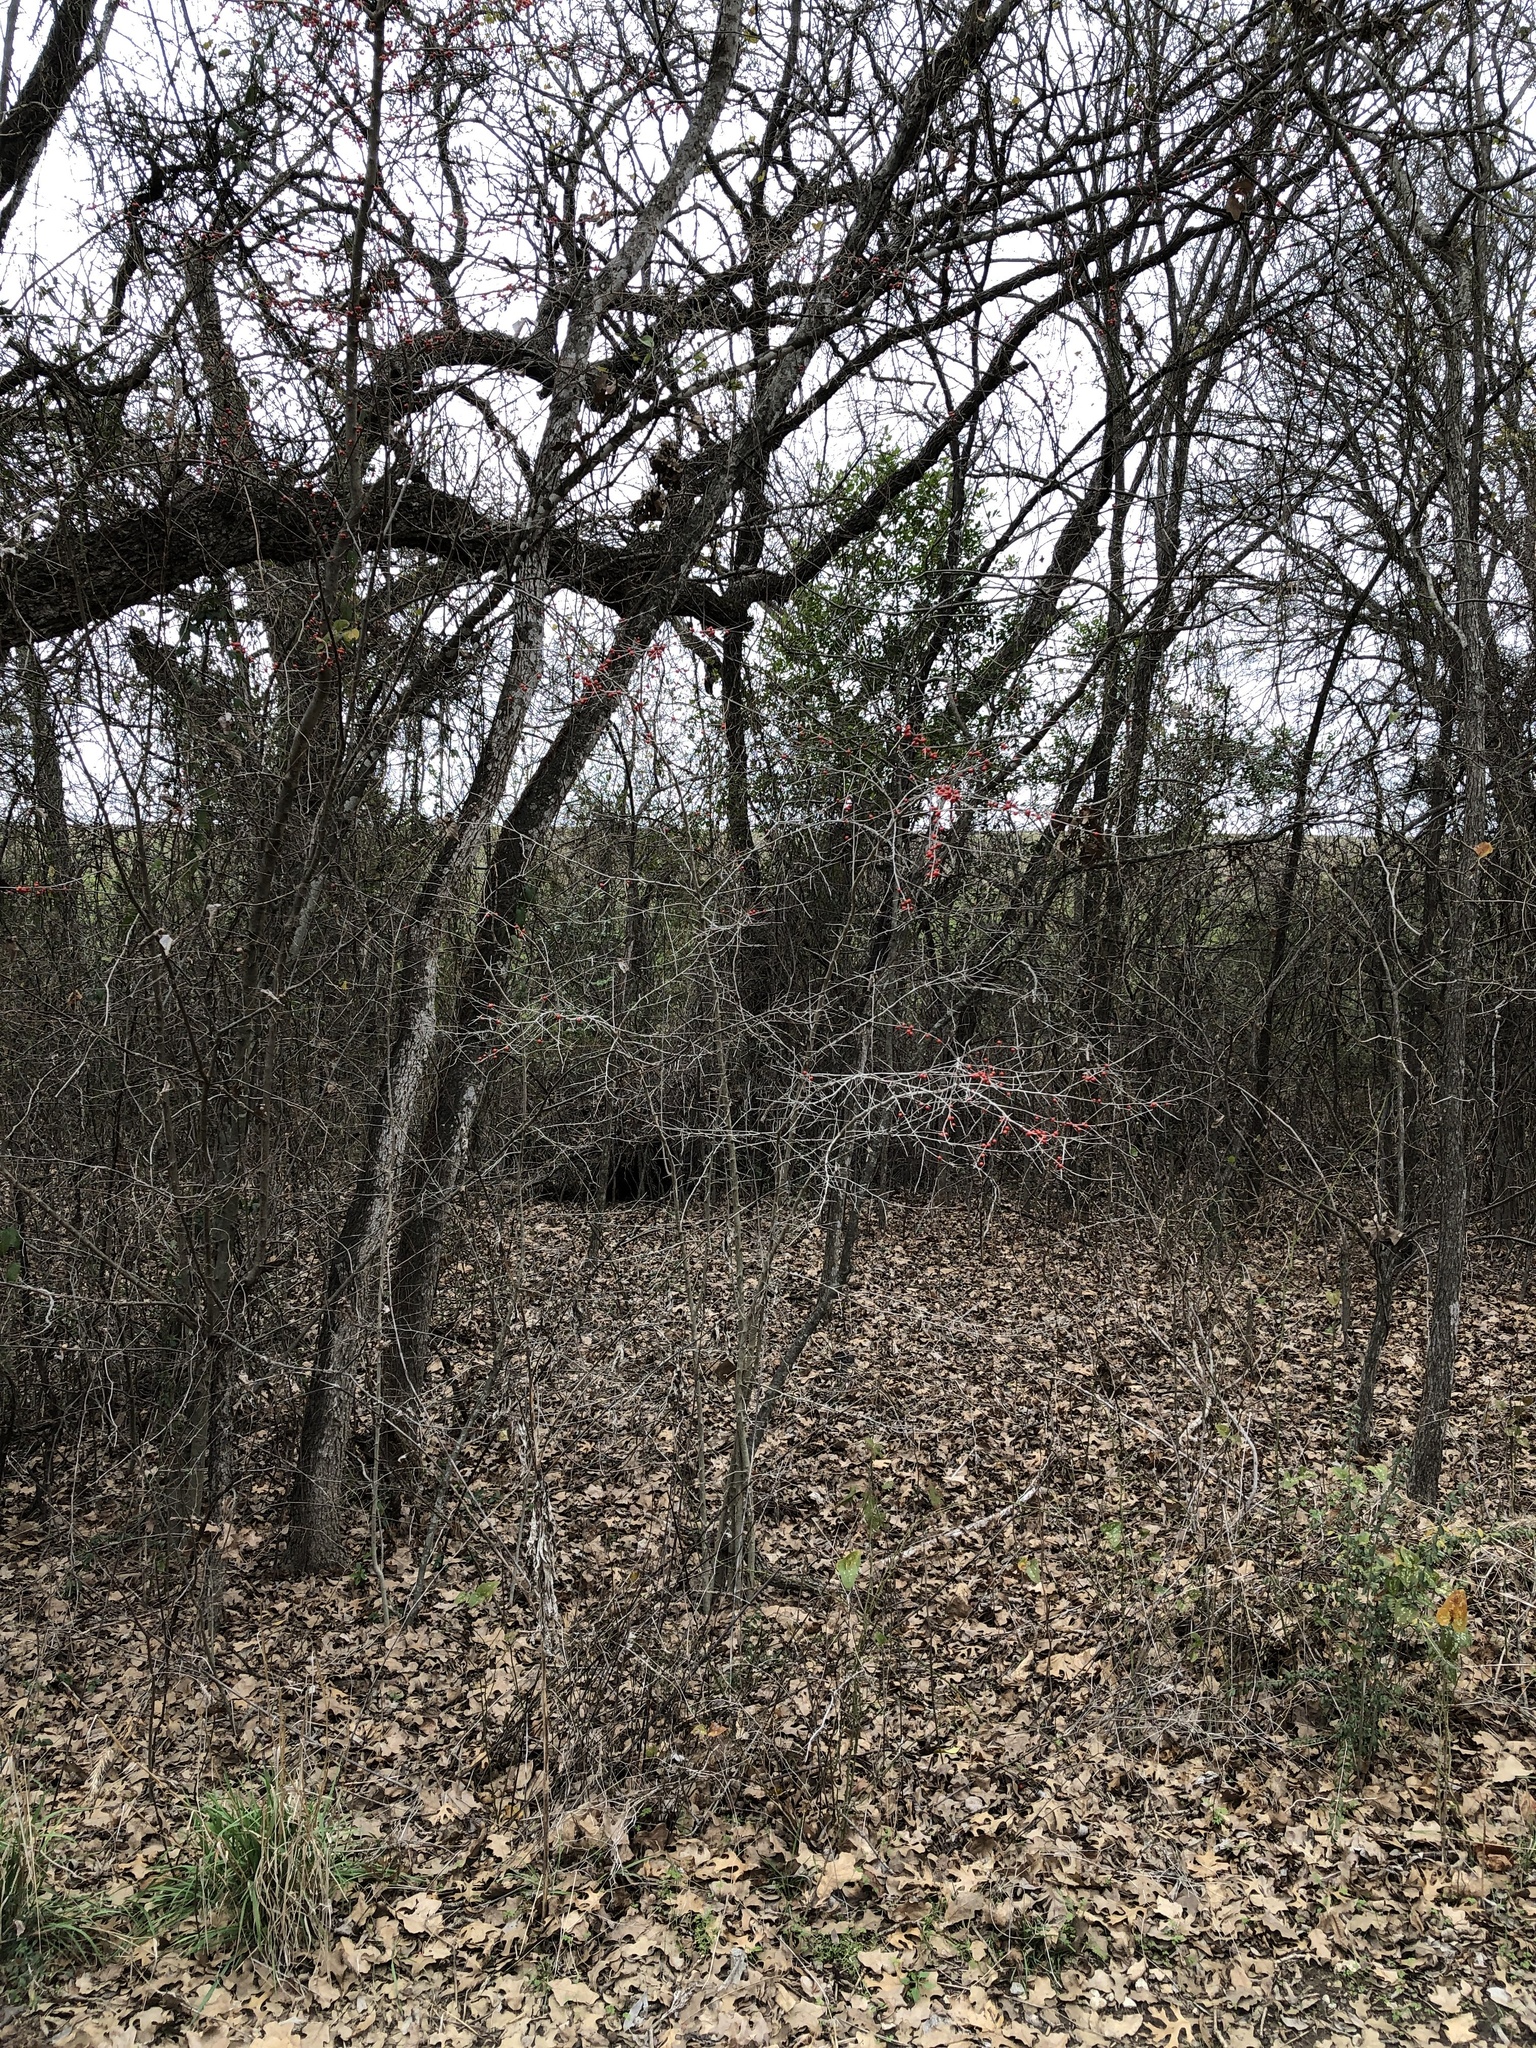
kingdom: Plantae
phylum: Tracheophyta
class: Magnoliopsida
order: Aquifoliales
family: Aquifoliaceae
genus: Ilex
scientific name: Ilex decidua
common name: Possum-haw
